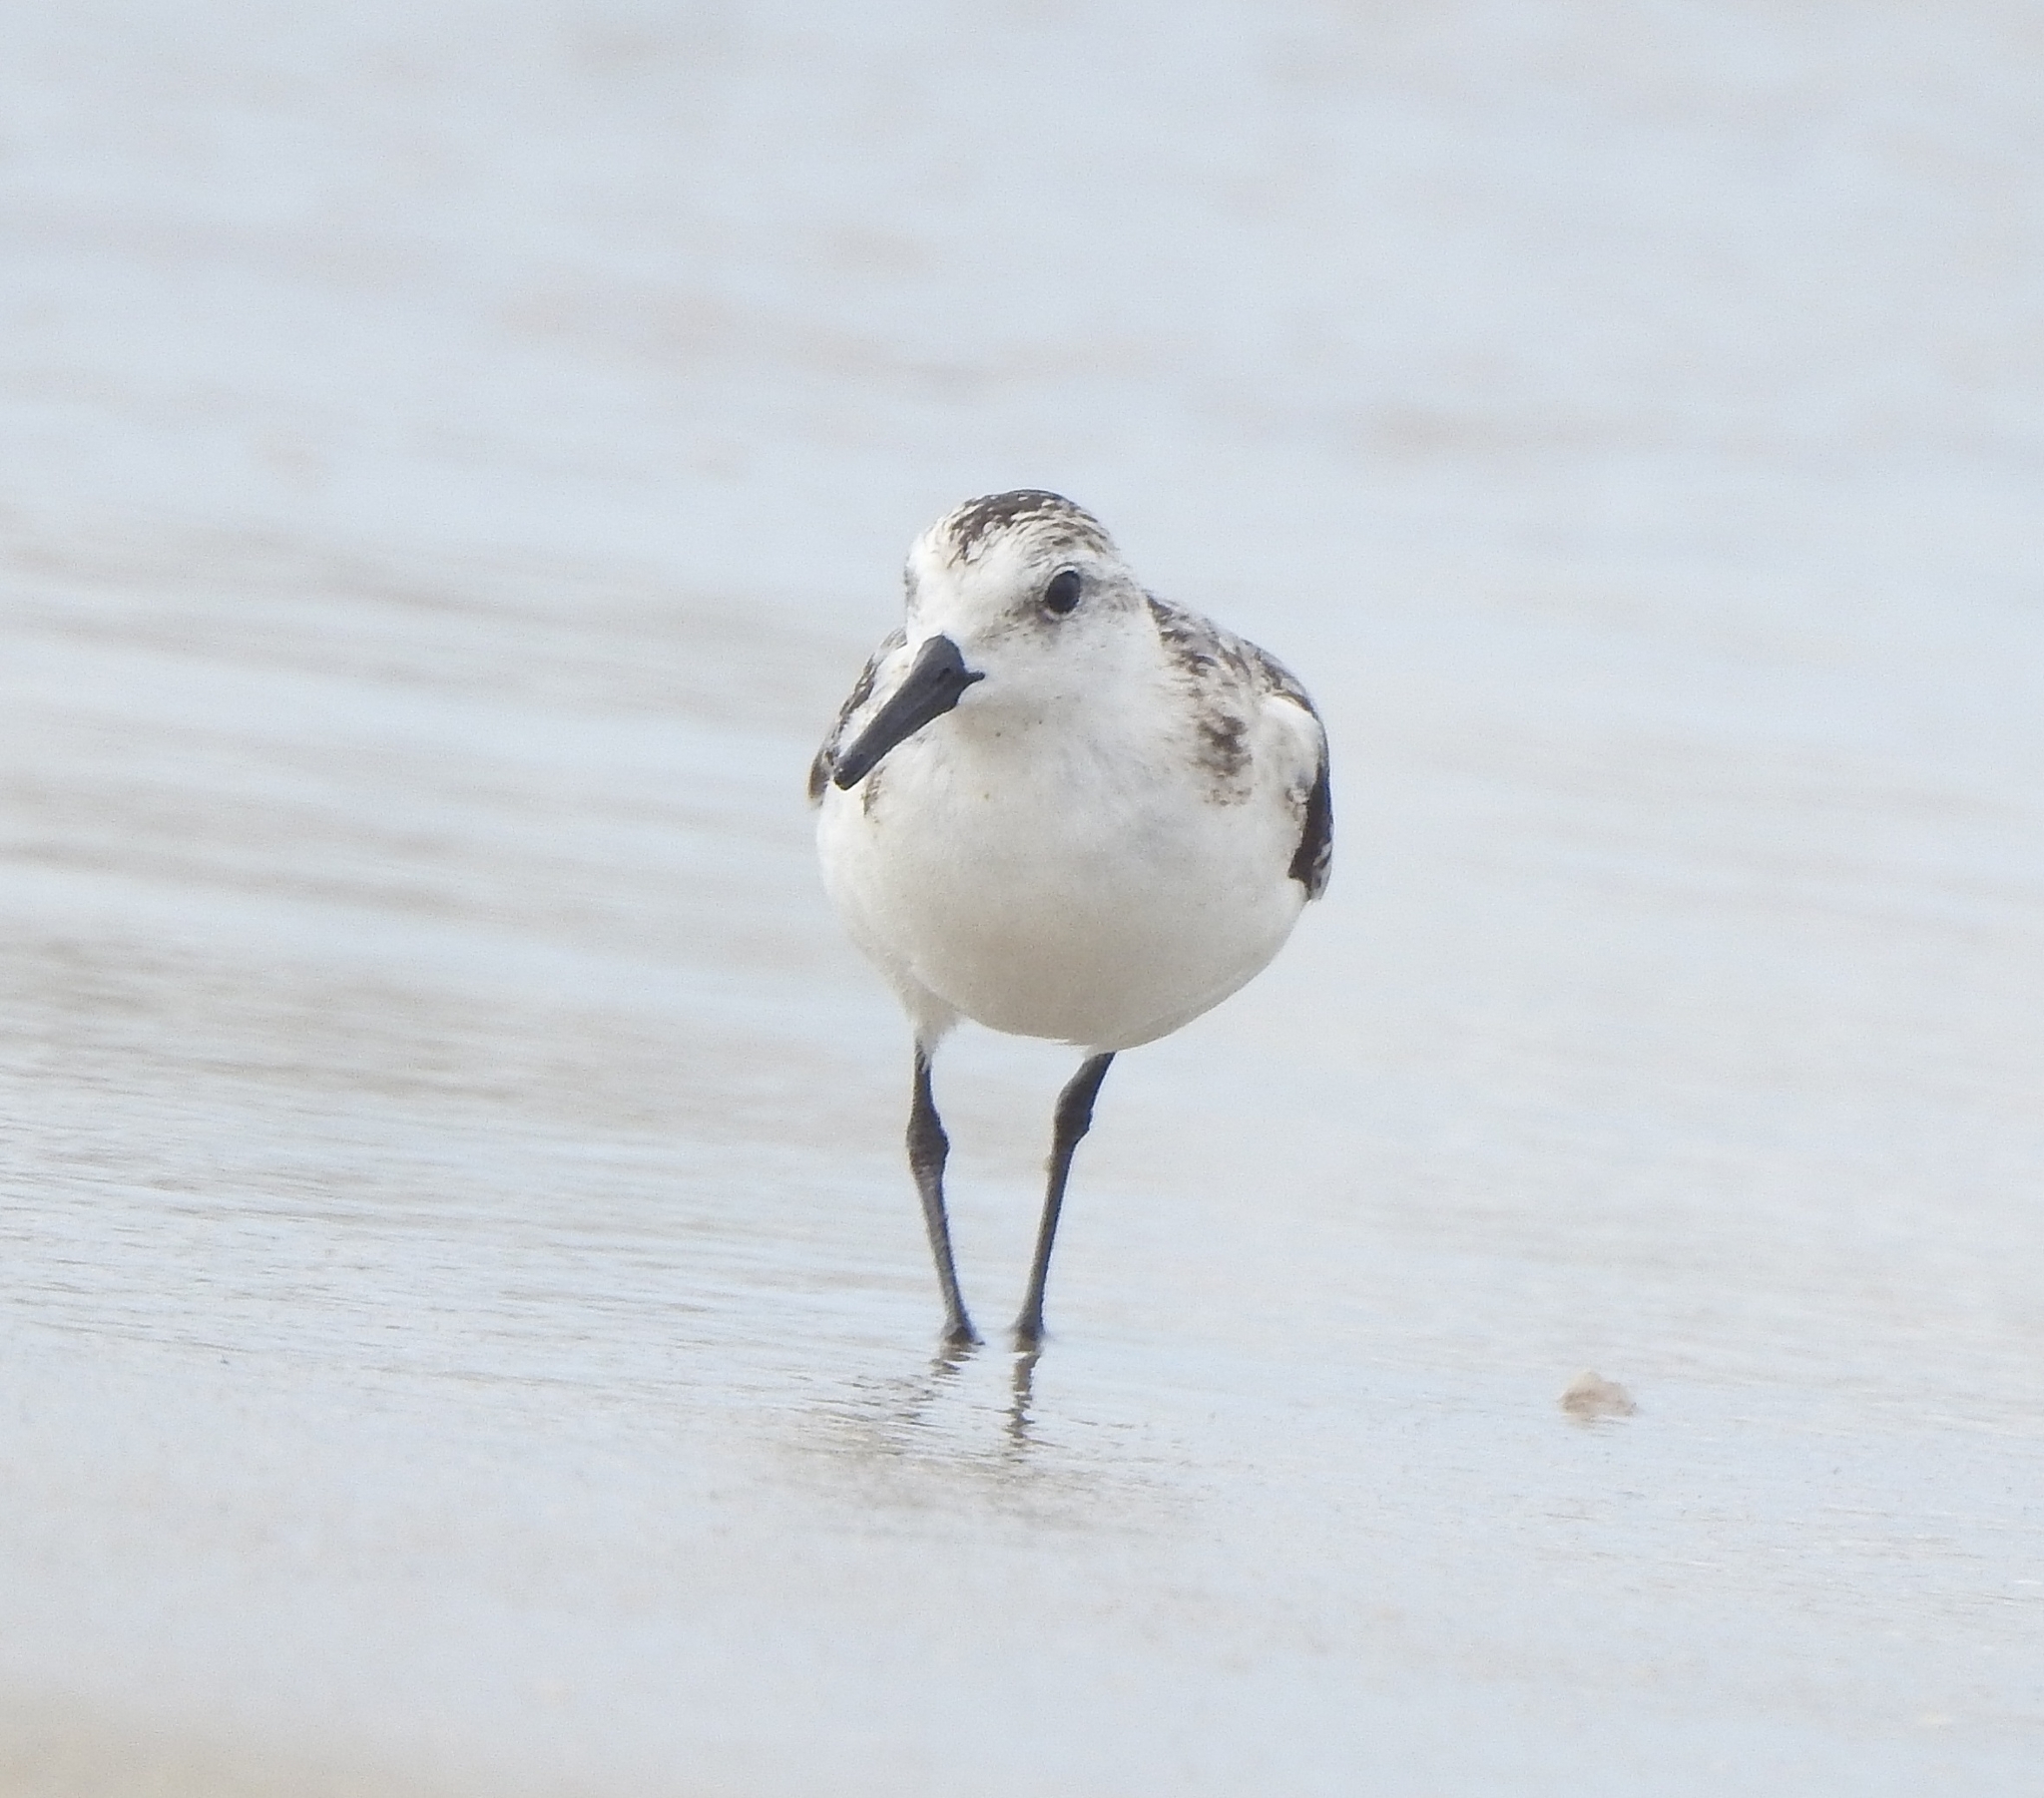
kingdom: Animalia
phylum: Chordata
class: Aves
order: Charadriiformes
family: Scolopacidae
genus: Calidris
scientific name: Calidris alba
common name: Sanderling
